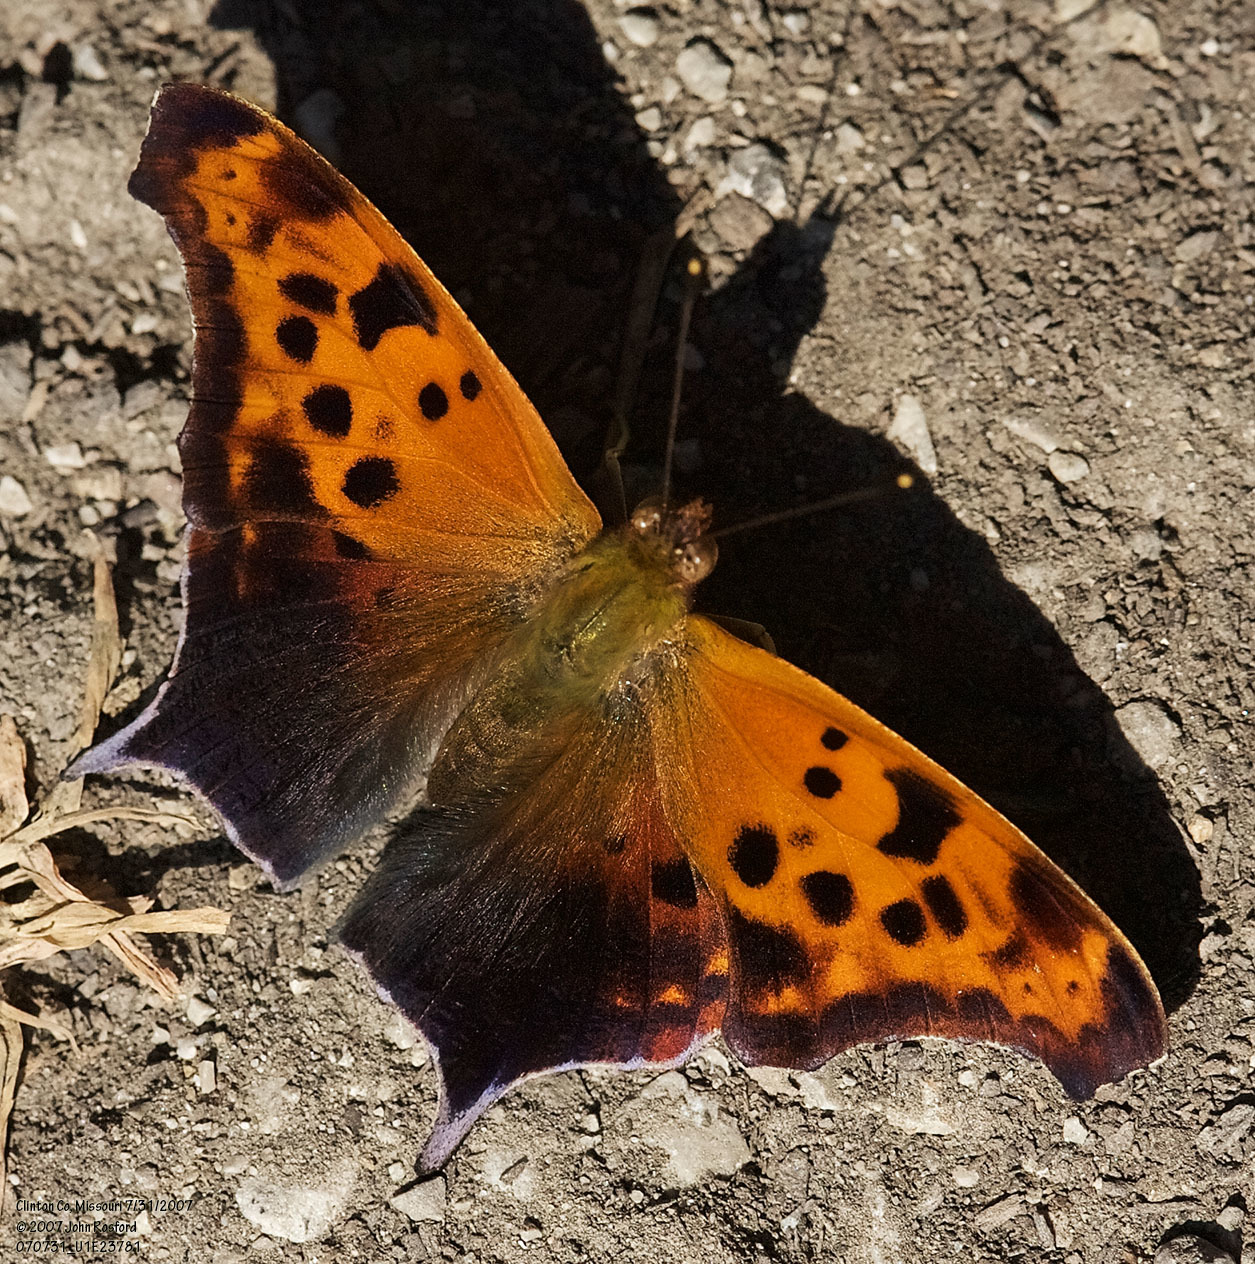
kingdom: Animalia
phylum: Arthropoda
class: Insecta
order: Lepidoptera
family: Nymphalidae
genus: Polygonia
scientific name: Polygonia interrogationis
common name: Question mark
